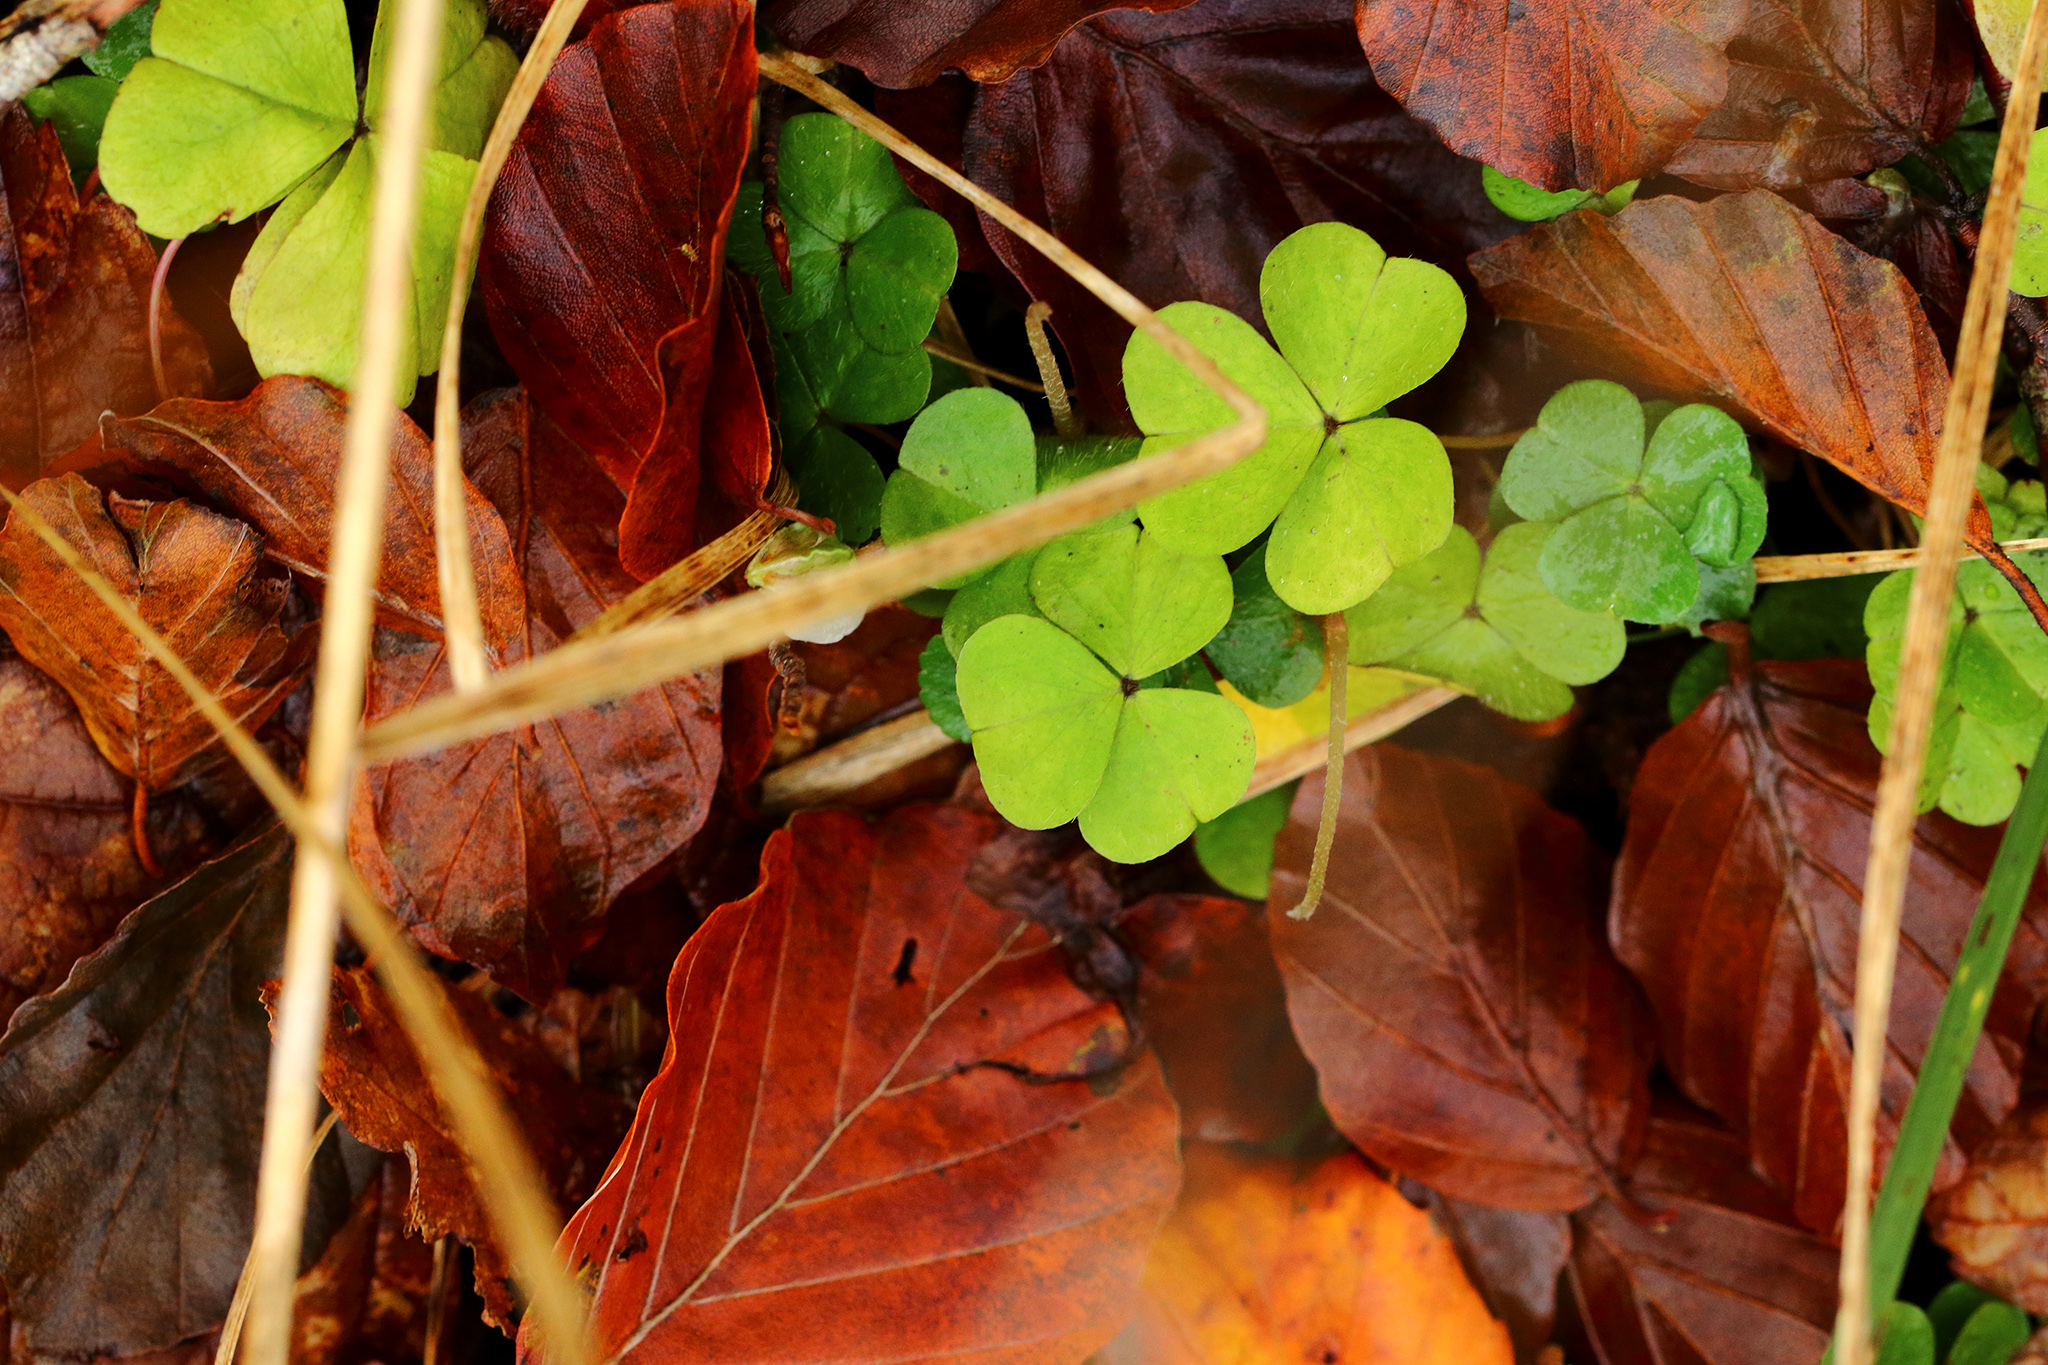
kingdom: Plantae
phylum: Tracheophyta
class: Magnoliopsida
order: Oxalidales
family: Oxalidaceae
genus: Oxalis
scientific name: Oxalis acetosella
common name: Wood-sorrel
